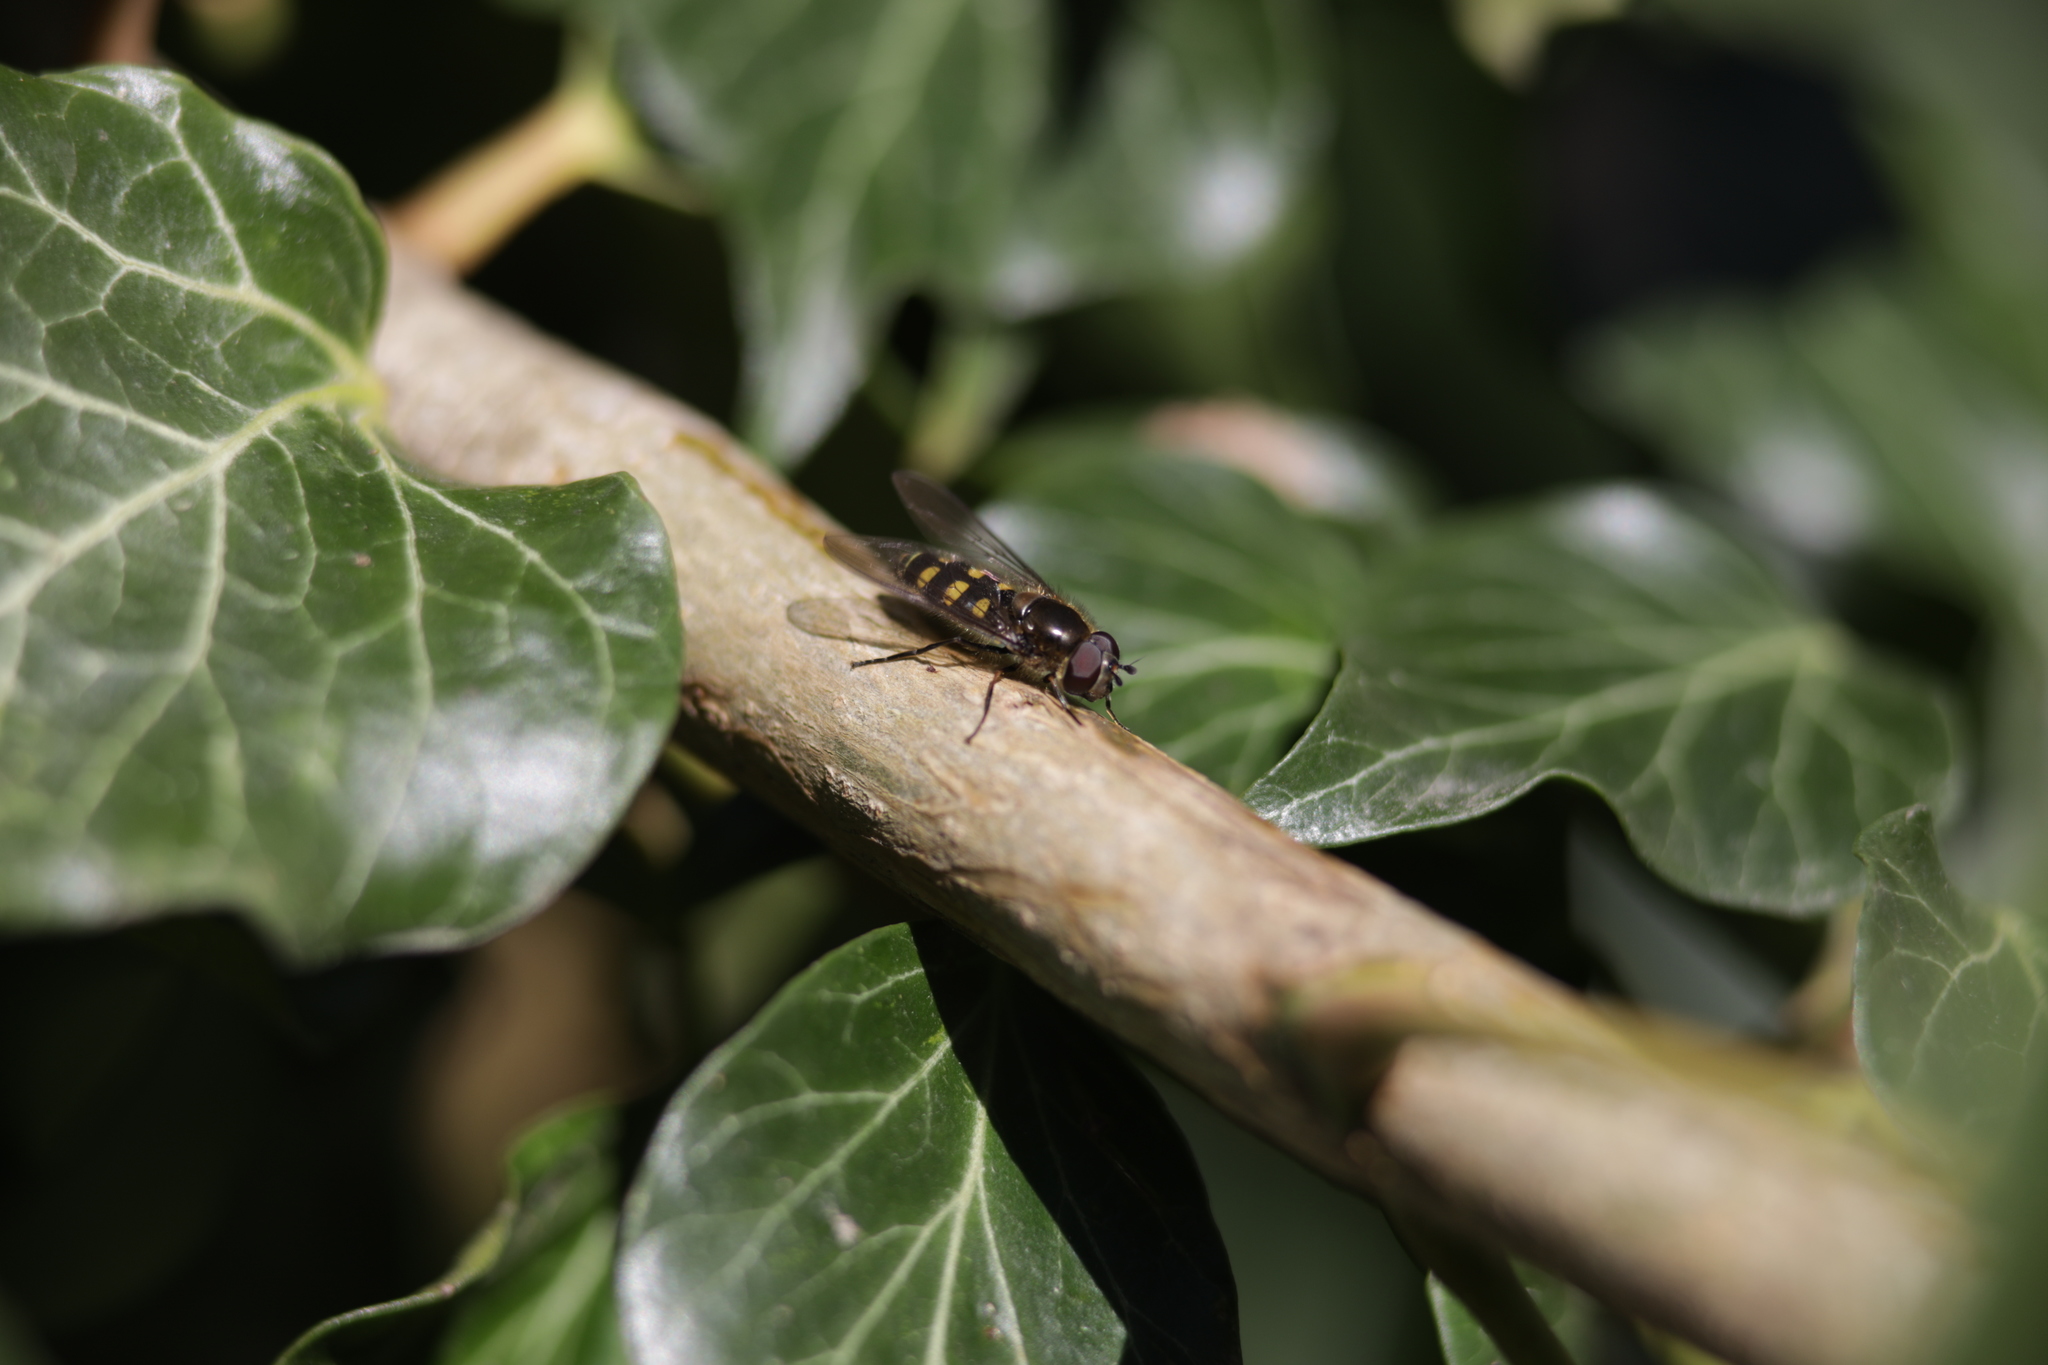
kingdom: Animalia
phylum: Arthropoda
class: Insecta
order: Diptera
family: Syrphidae
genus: Melangyna
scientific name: Melangyna lasiophthalma
